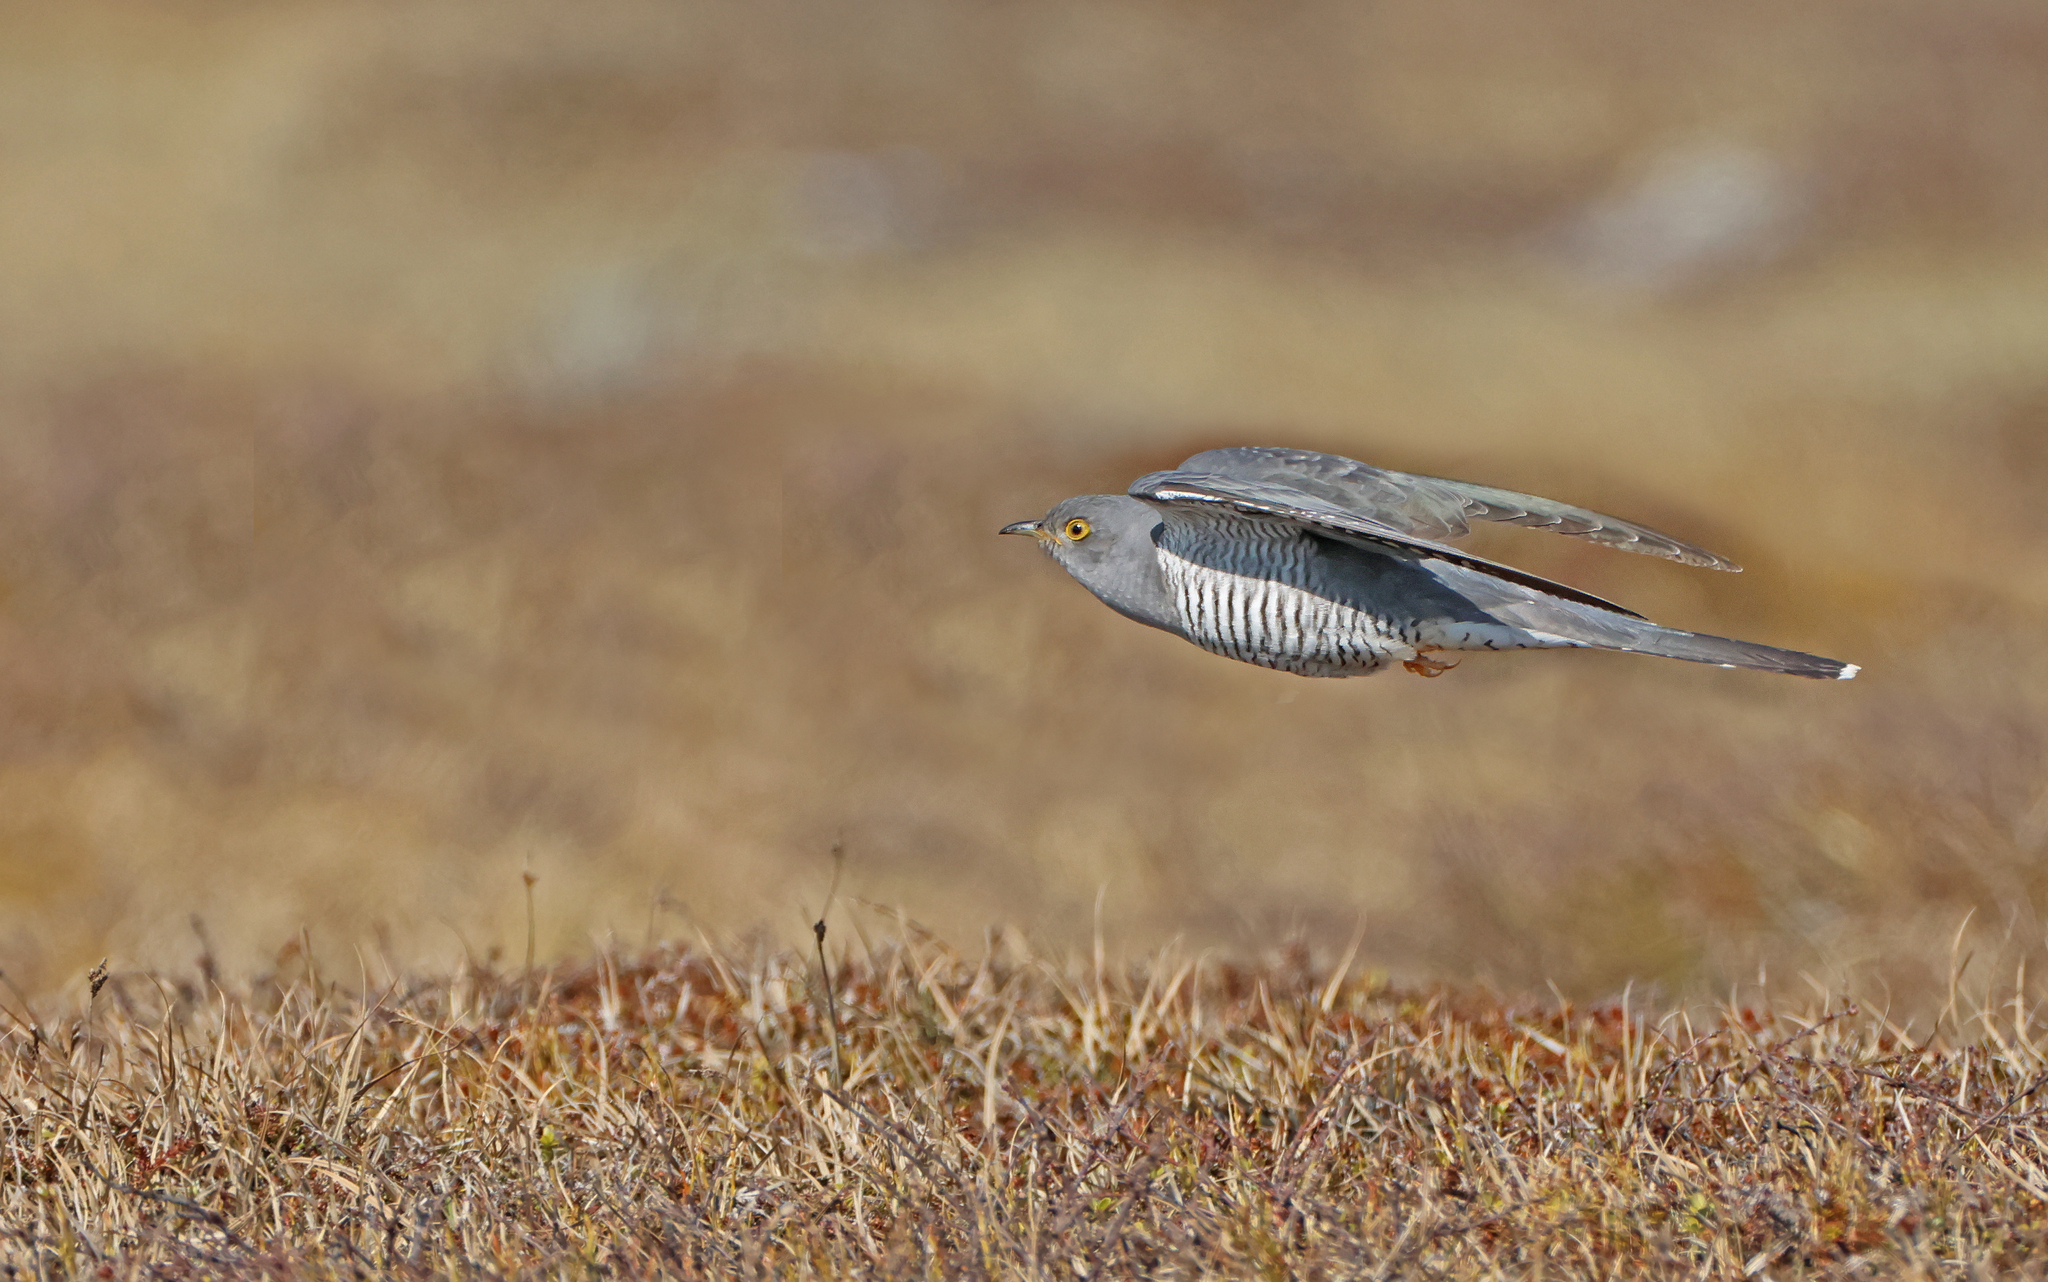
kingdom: Animalia
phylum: Chordata
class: Aves
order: Cuculiformes
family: Cuculidae
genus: Cuculus
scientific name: Cuculus canorus
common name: Common cuckoo
